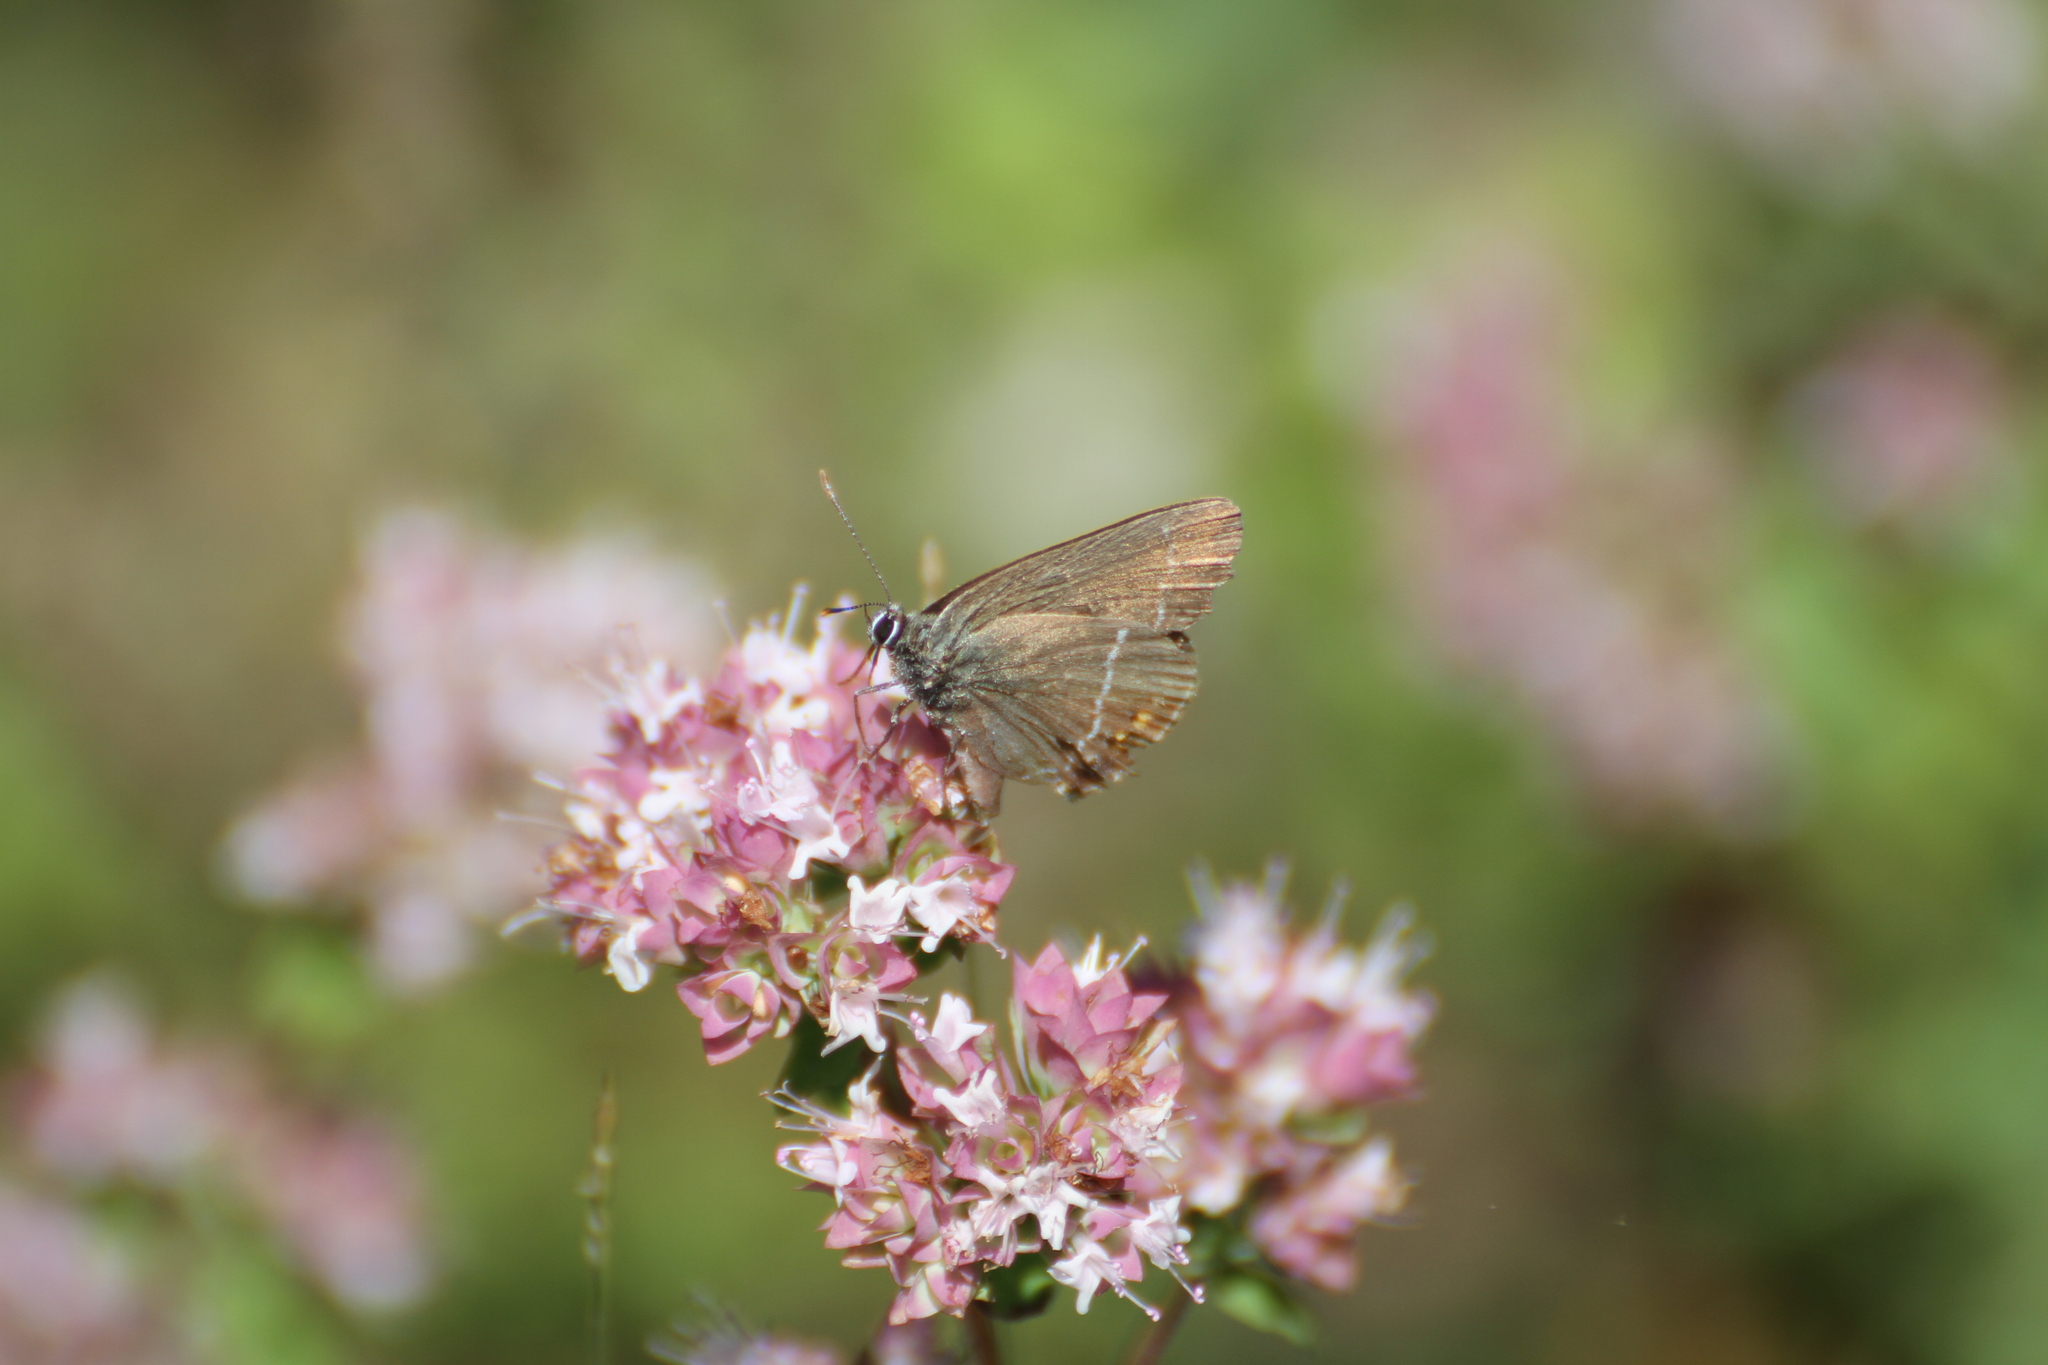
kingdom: Animalia
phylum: Arthropoda
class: Insecta
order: Lepidoptera
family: Lycaenidae
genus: Tuttiola
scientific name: Tuttiola spini
